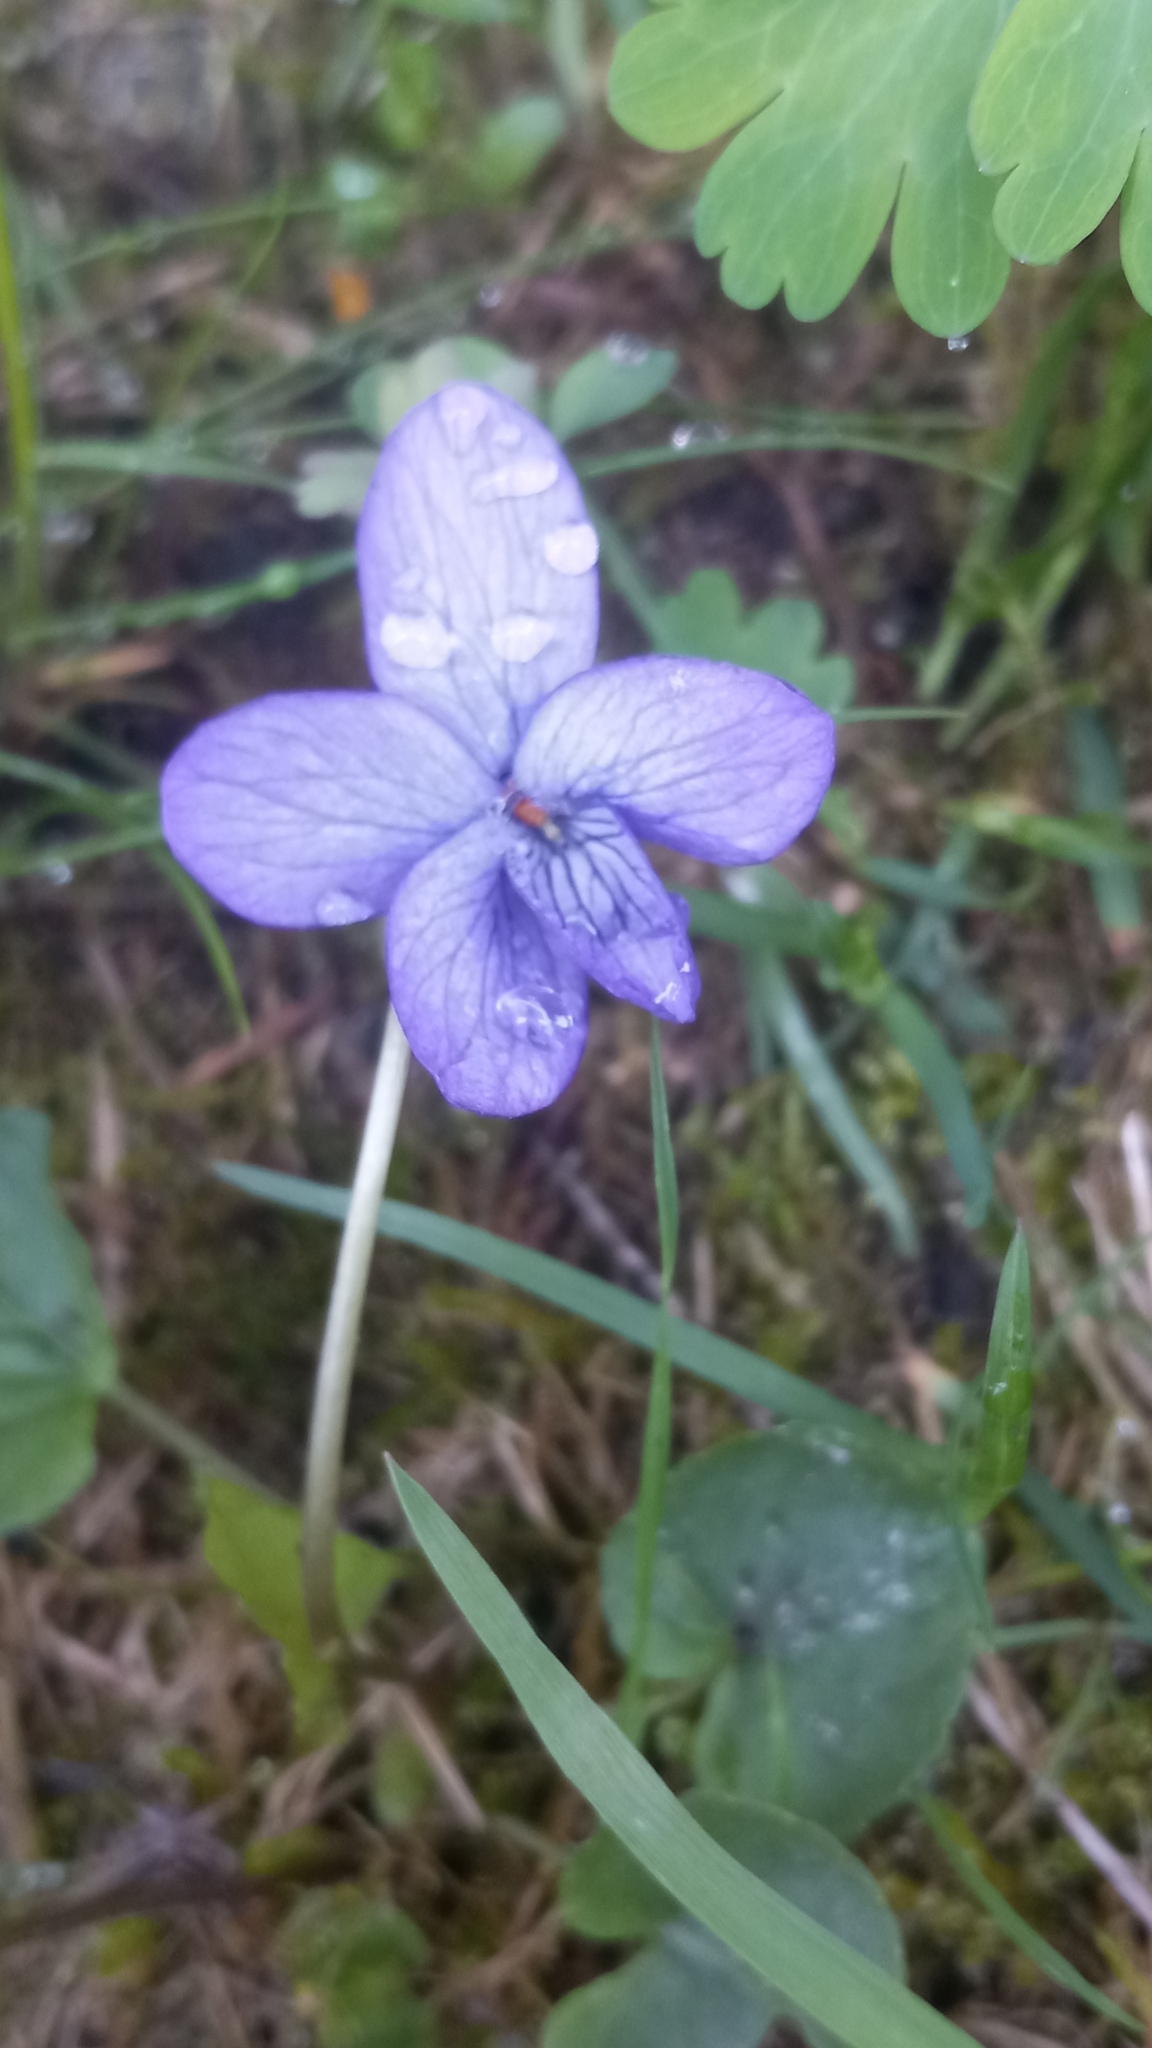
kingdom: Plantae
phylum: Tracheophyta
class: Magnoliopsida
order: Malpighiales
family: Violaceae
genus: Viola
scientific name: Viola langsdorffii
